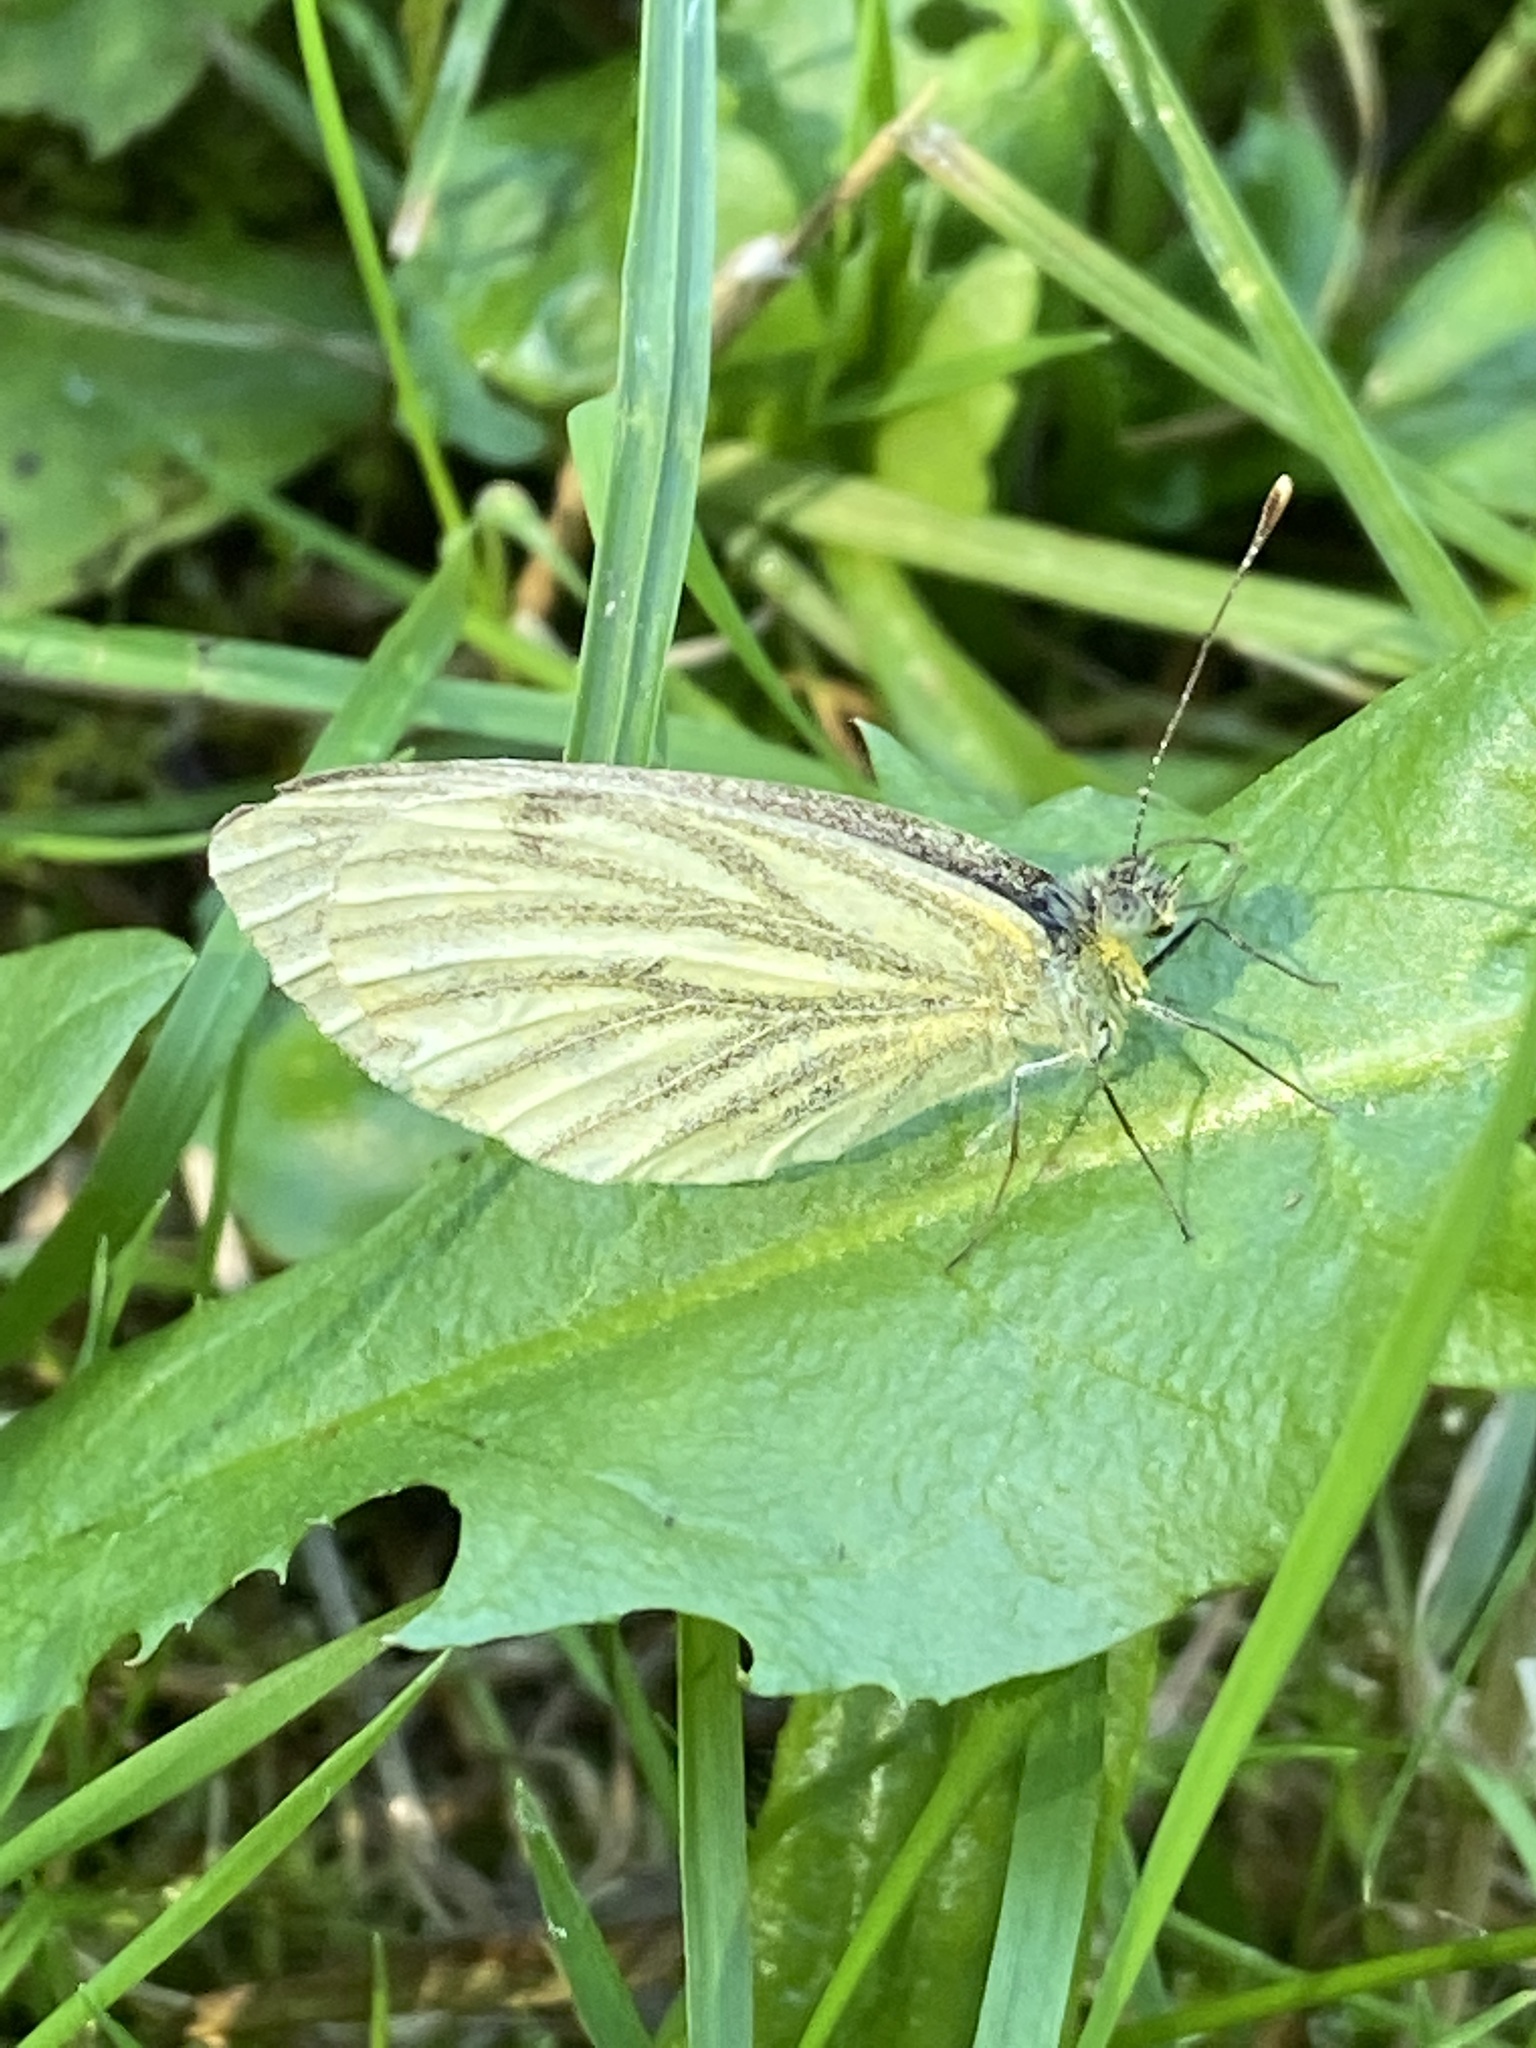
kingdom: Animalia
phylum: Arthropoda
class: Insecta
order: Lepidoptera
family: Pieridae
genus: Pieris
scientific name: Pieris napi
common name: Green-veined white
